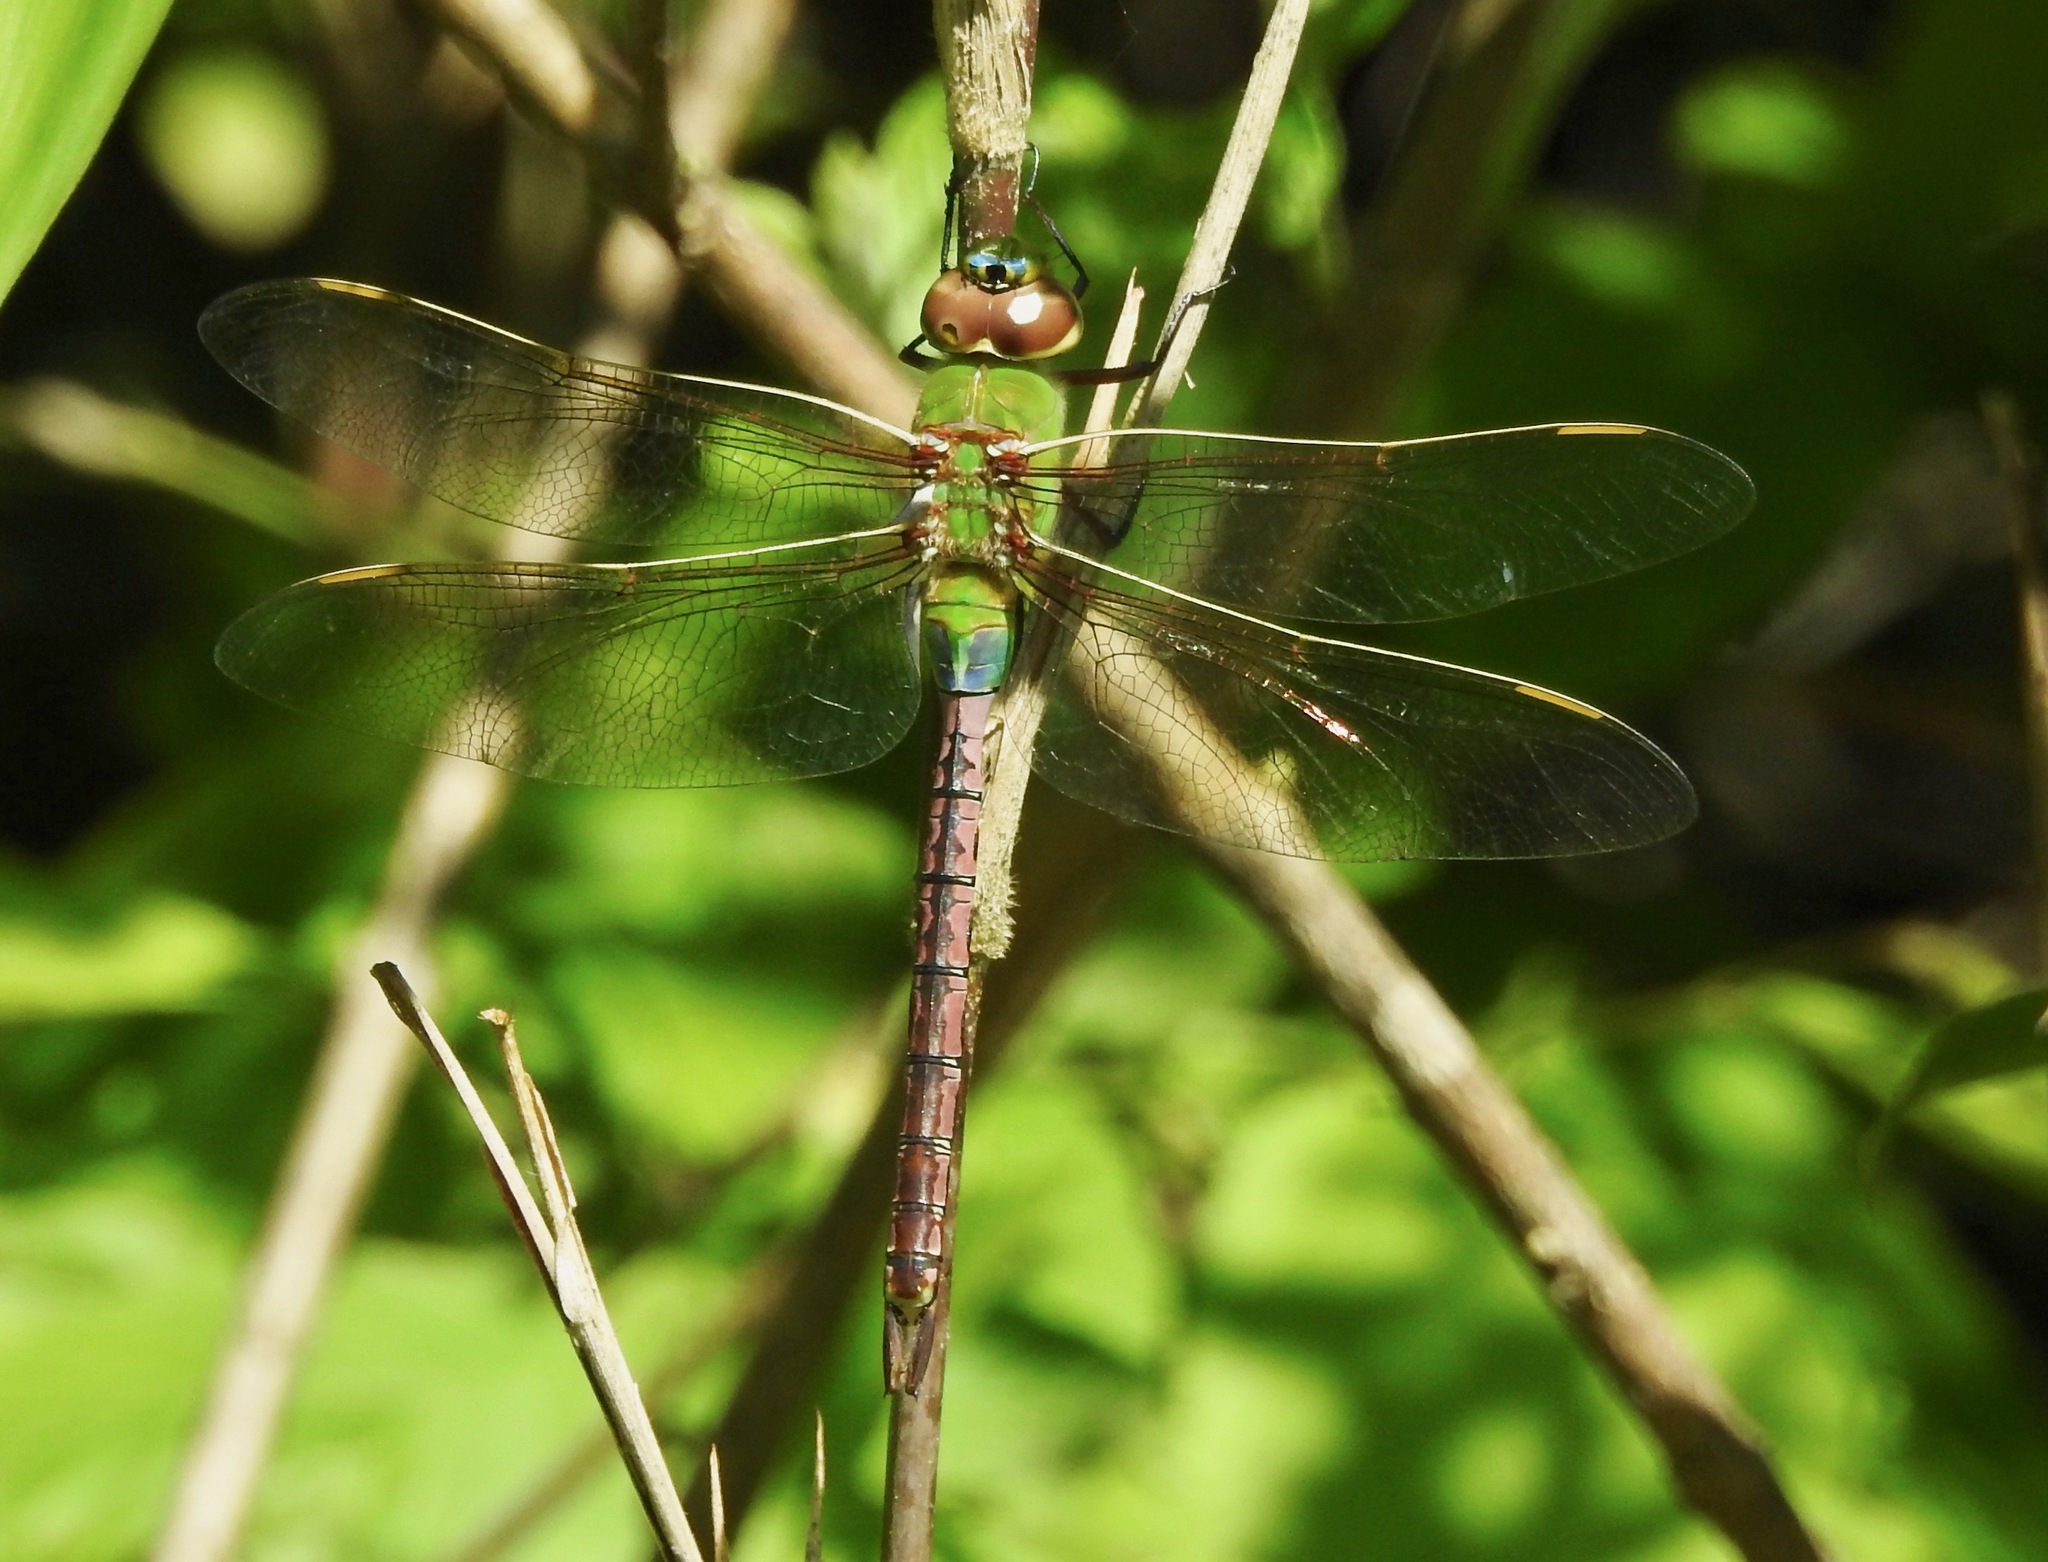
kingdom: Animalia
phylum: Arthropoda
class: Insecta
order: Odonata
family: Aeshnidae
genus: Anax
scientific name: Anax junius
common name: Common green darner
